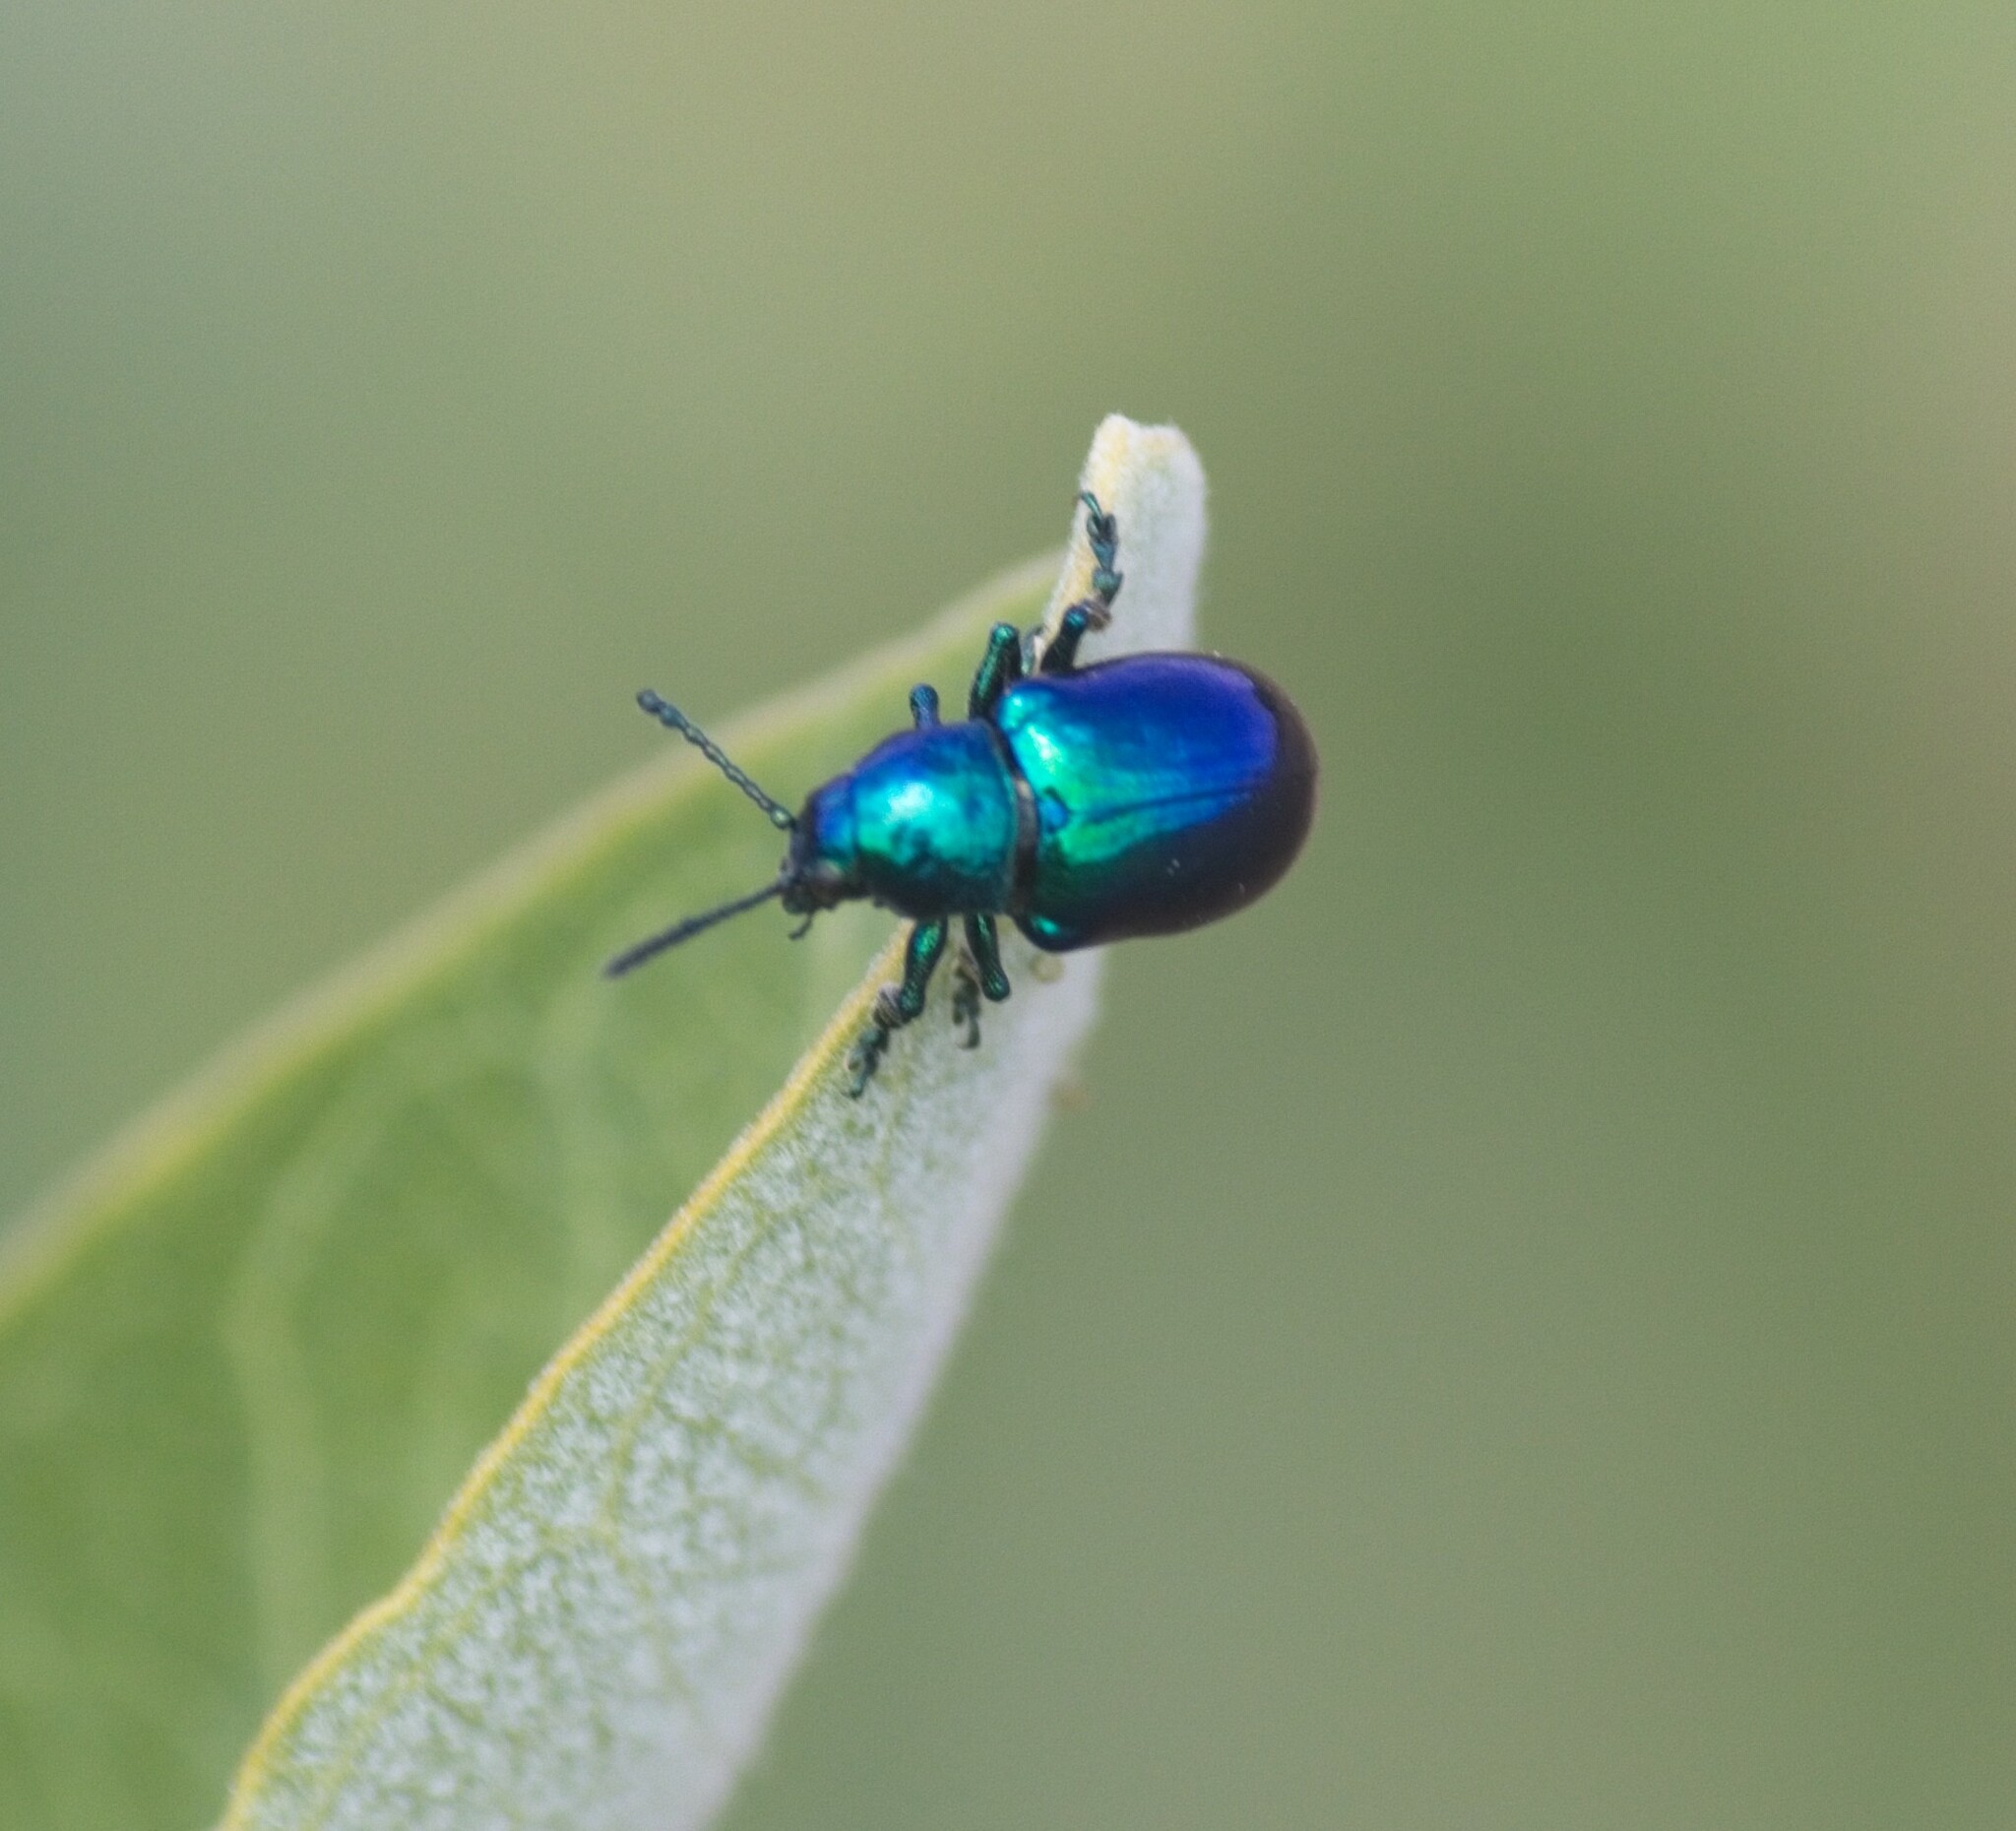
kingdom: Animalia
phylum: Arthropoda
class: Insecta
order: Coleoptera
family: Chrysomelidae
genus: Chrysochus
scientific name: Chrysochus cobaltinus
